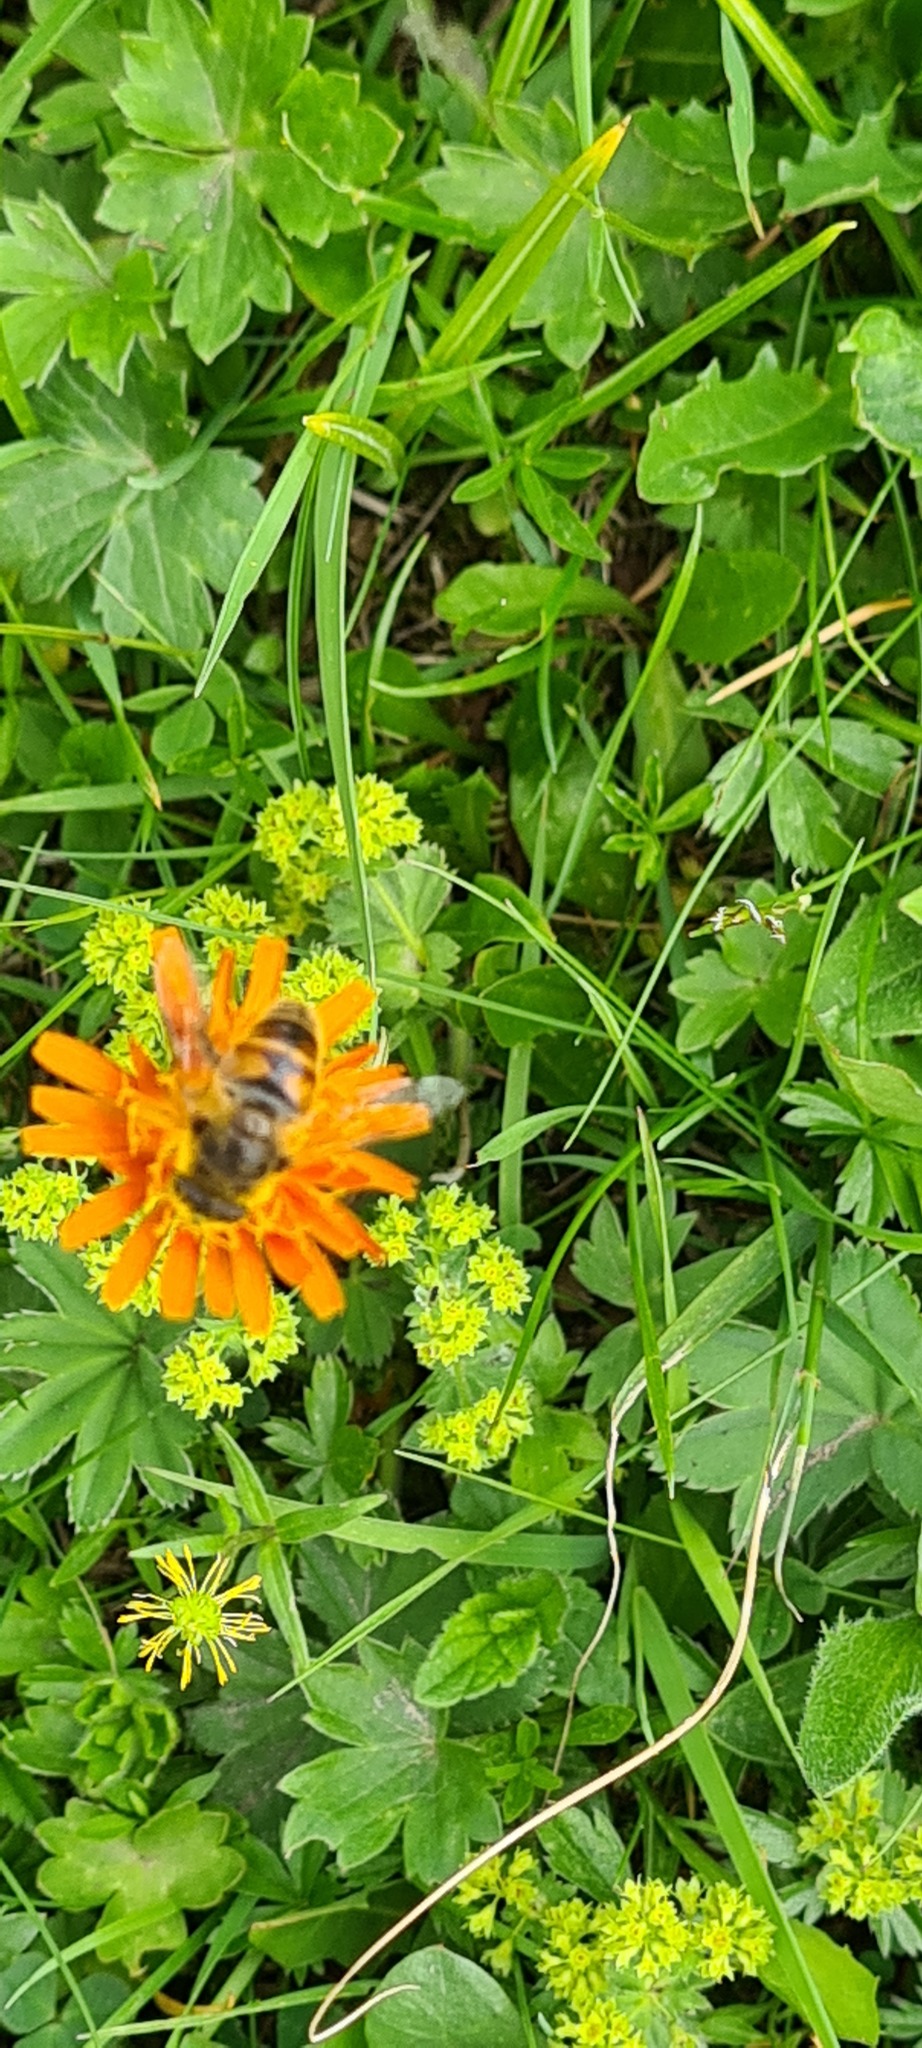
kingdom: Animalia
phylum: Arthropoda
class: Insecta
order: Diptera
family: Syrphidae
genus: Eristalis
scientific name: Eristalis tenax
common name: Drone fly
